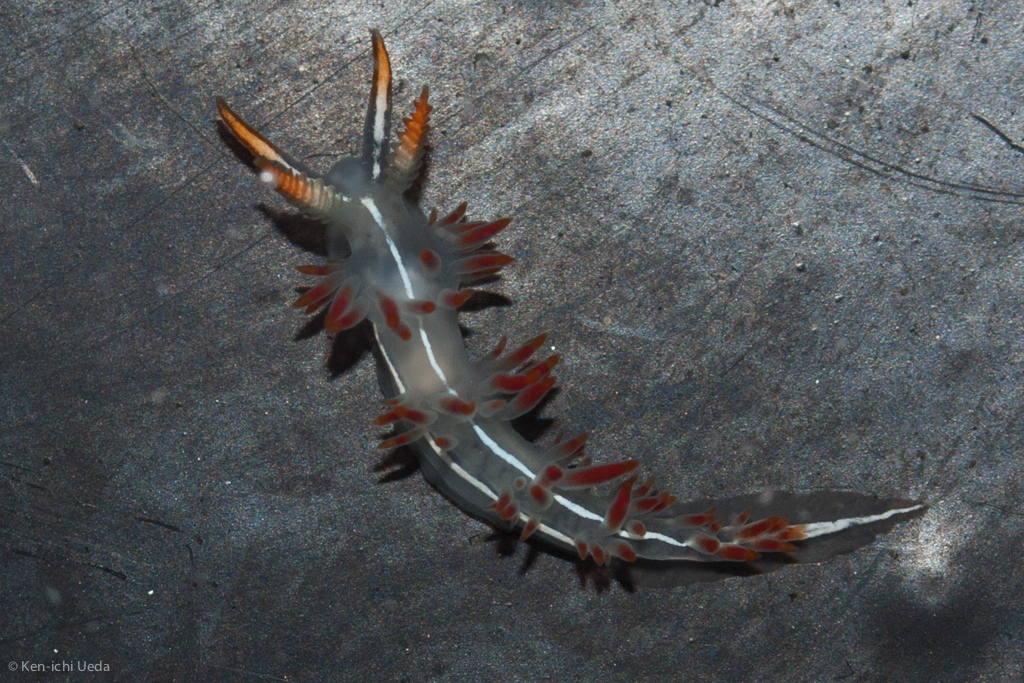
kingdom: Animalia
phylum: Mollusca
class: Gastropoda
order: Nudibranchia
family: Coryphellidae
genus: Coryphella
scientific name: Coryphella trilineata
